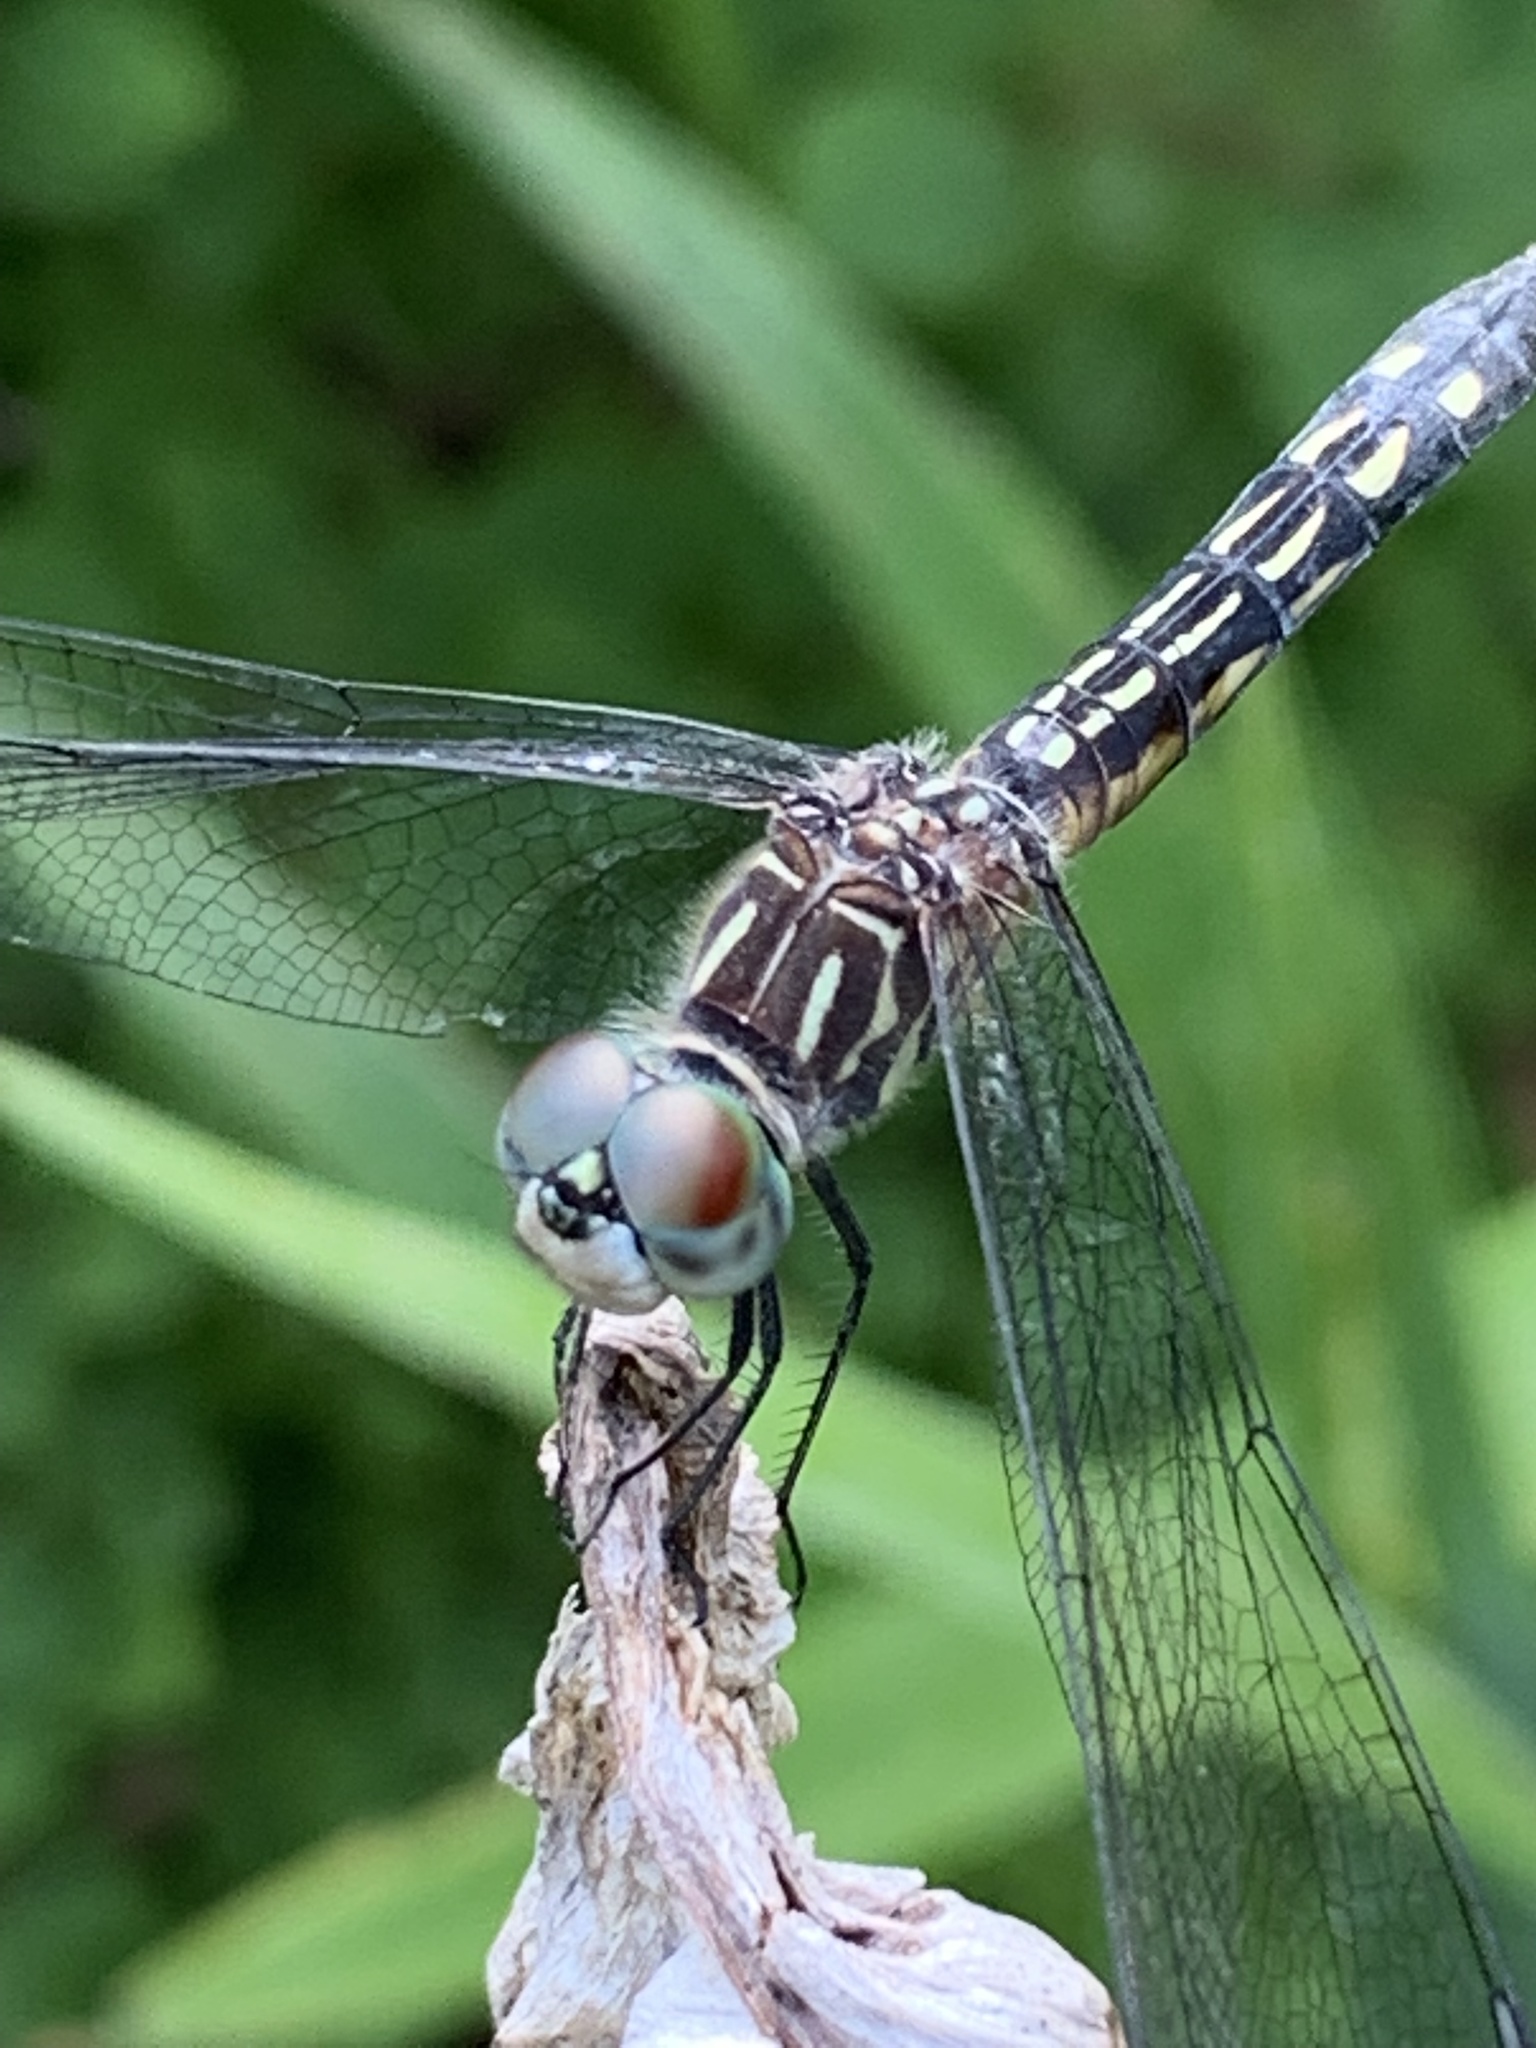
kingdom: Animalia
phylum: Arthropoda
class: Insecta
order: Odonata
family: Libellulidae
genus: Pachydiplax
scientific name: Pachydiplax longipennis
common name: Blue dasher
